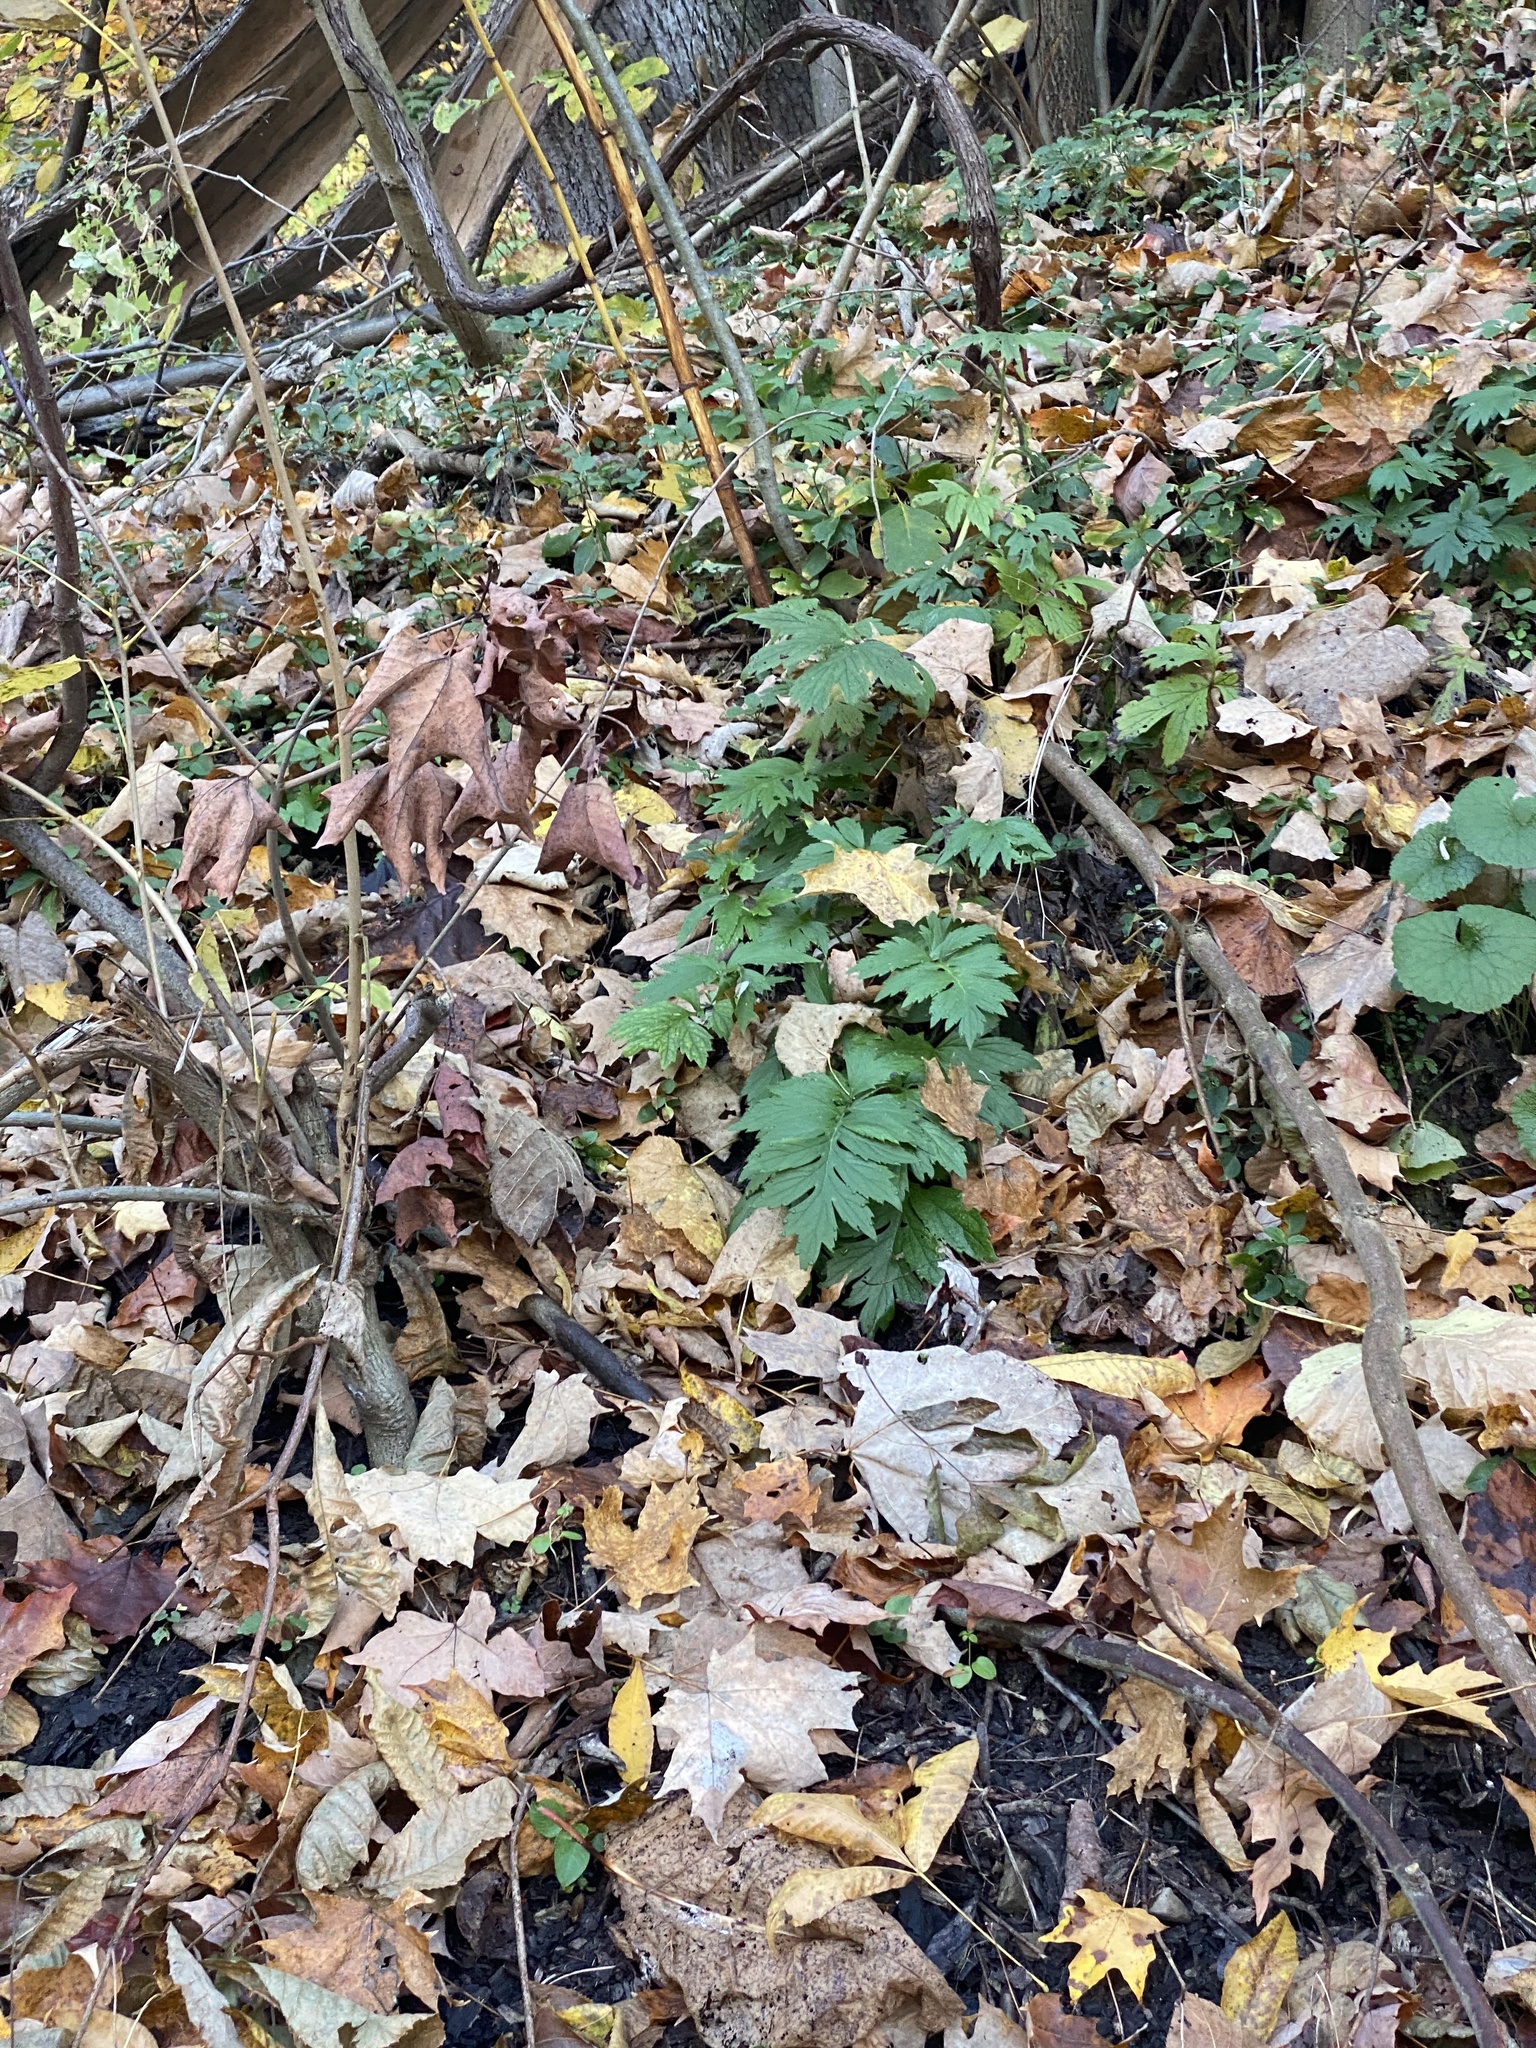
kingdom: Plantae
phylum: Tracheophyta
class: Magnoliopsida
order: Boraginales
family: Hydrophyllaceae
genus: Hydrophyllum
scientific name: Hydrophyllum virginianum
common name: Virginia waterleaf
